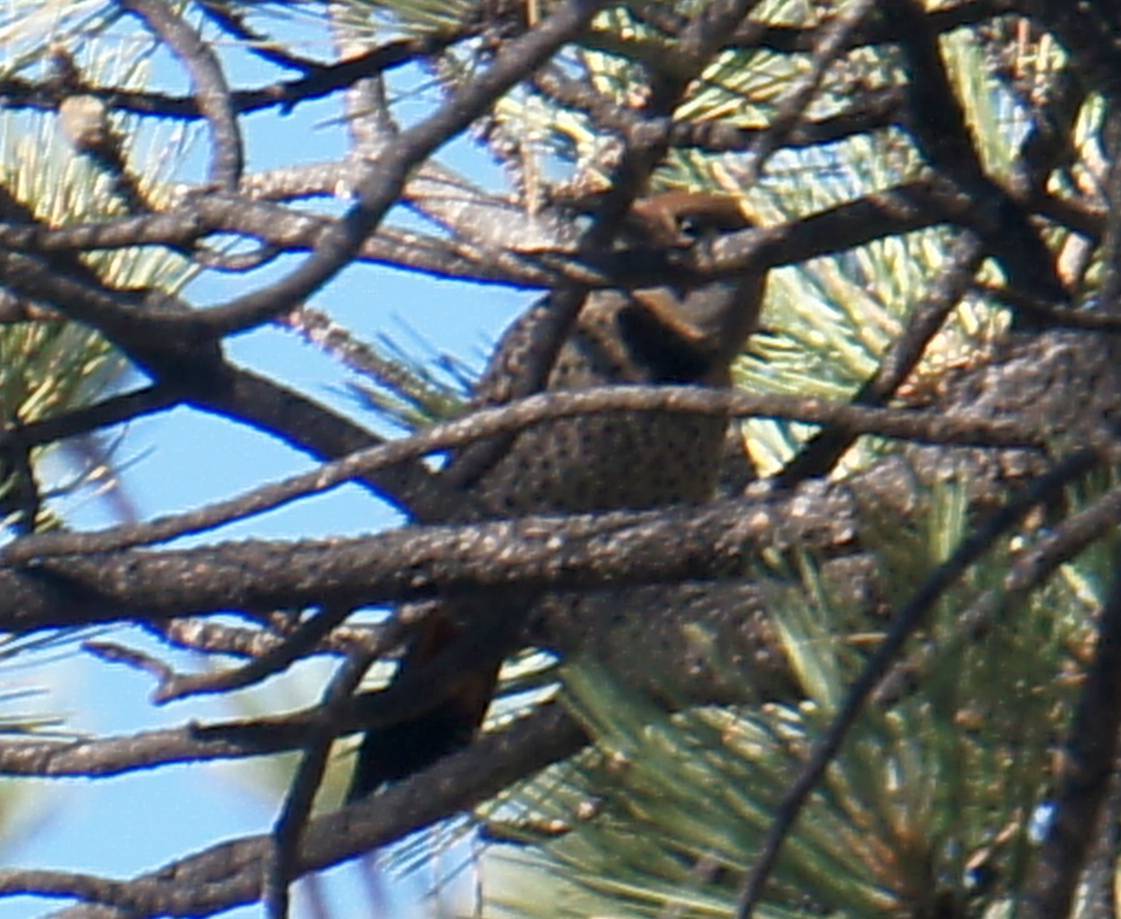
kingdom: Animalia
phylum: Chordata
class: Aves
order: Piciformes
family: Picidae
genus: Colaptes
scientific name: Colaptes auratus
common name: Northern flicker
